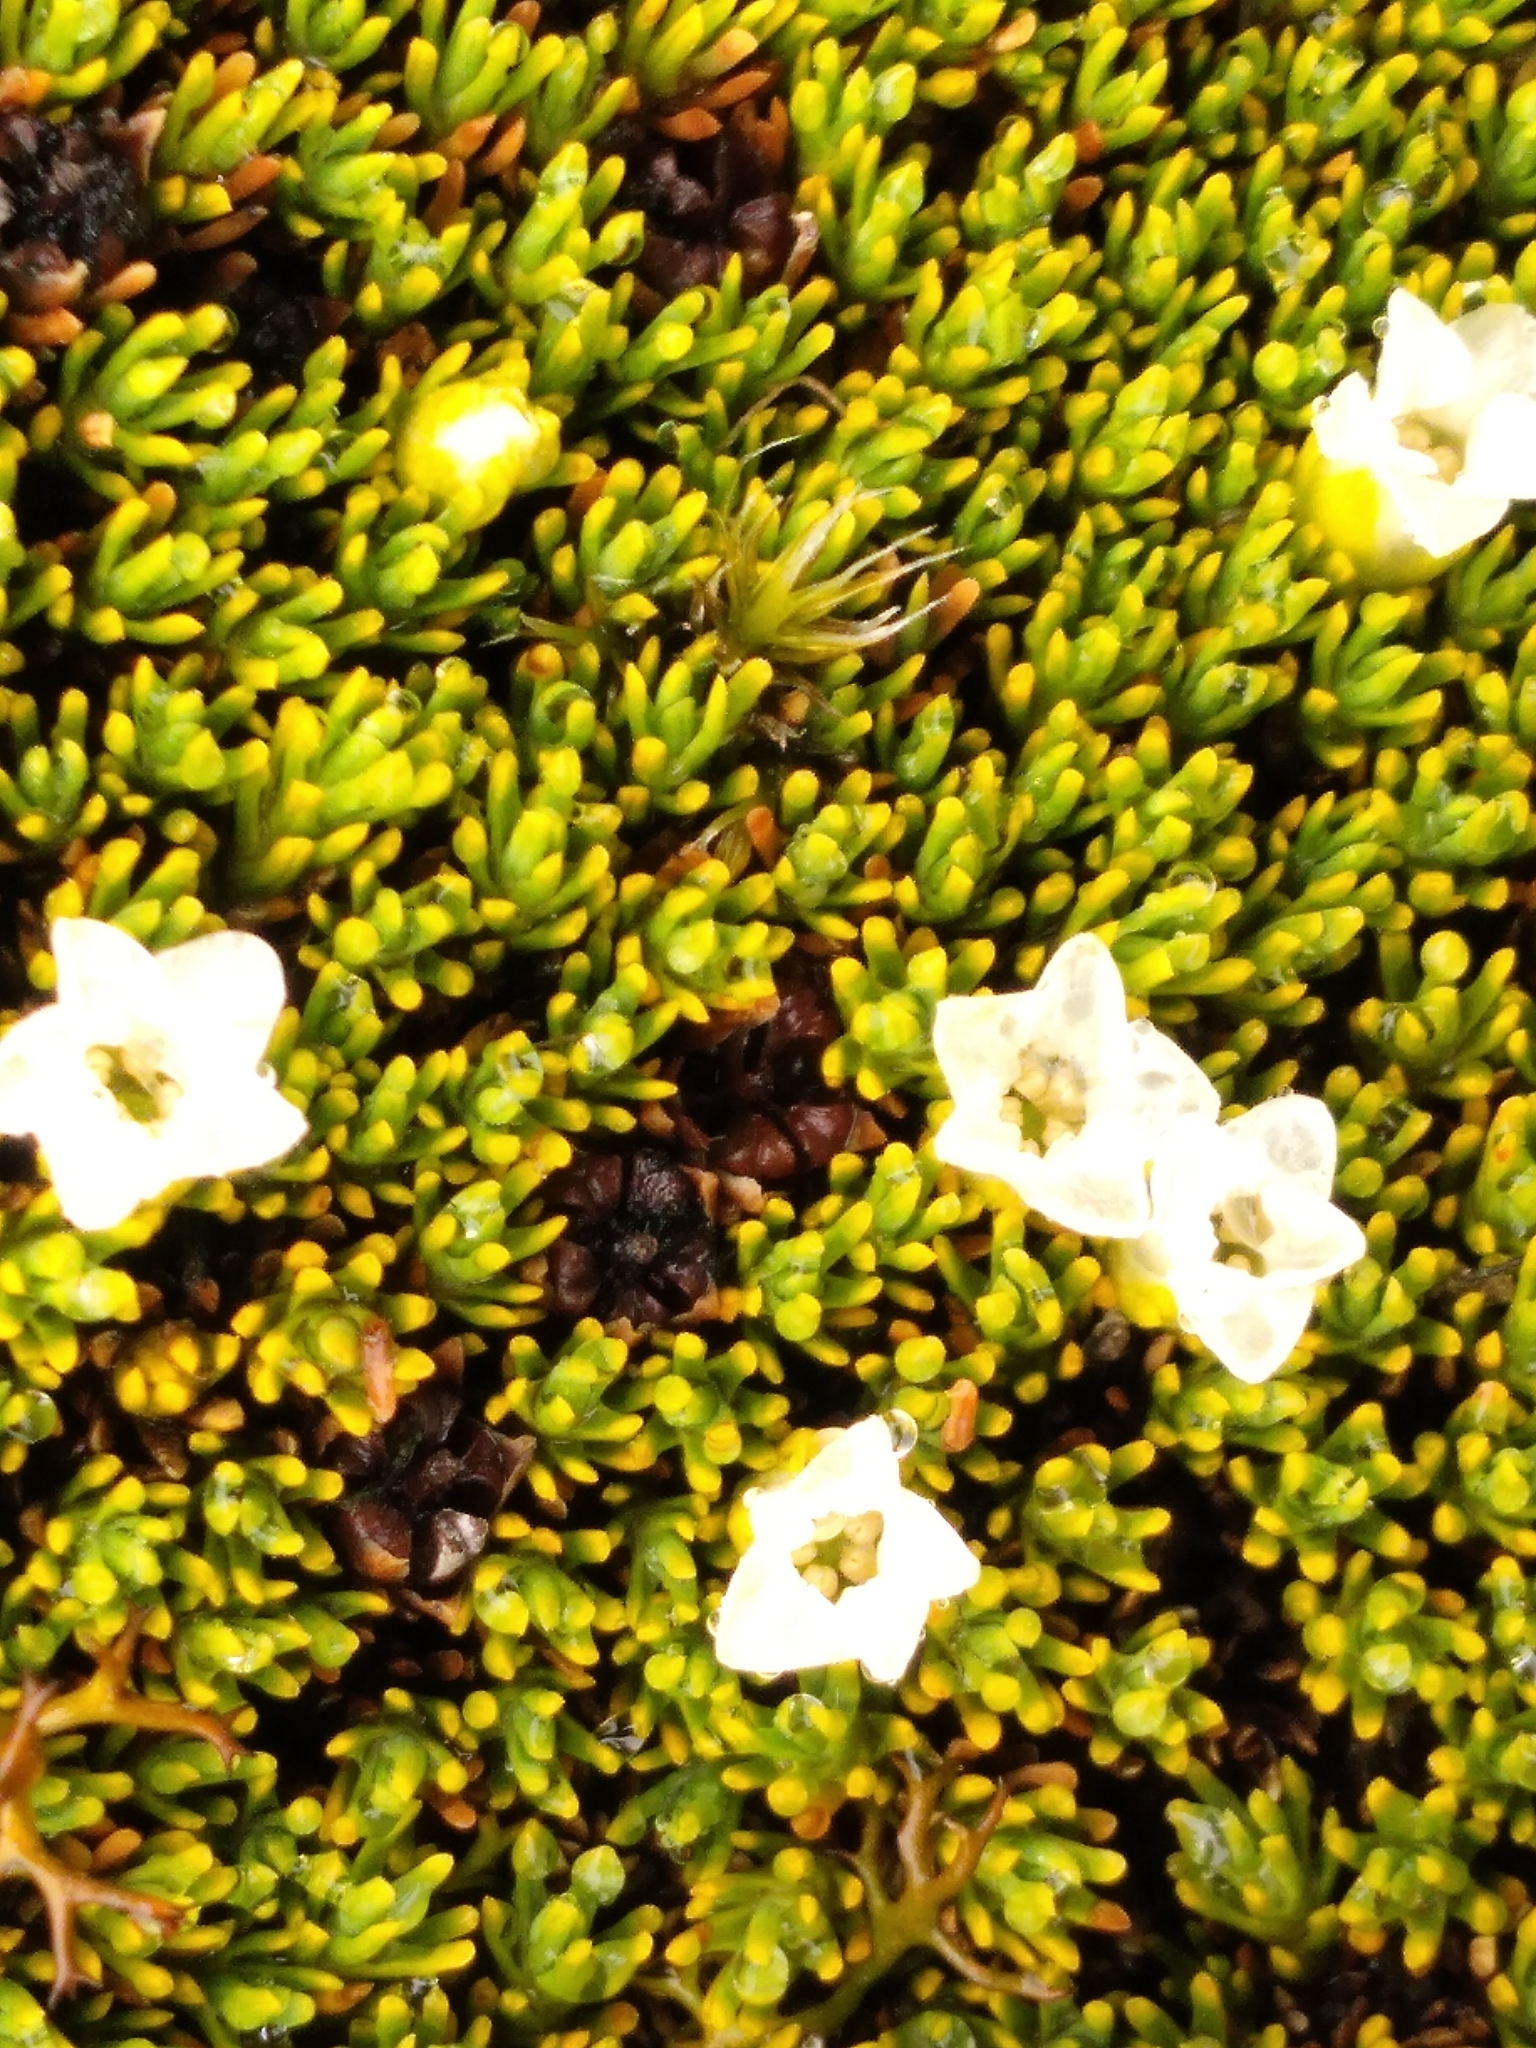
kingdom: Plantae
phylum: Tracheophyta
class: Magnoliopsida
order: Ericales
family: Ericaceae
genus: Dracophyllum
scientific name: Dracophyllum muscoides
